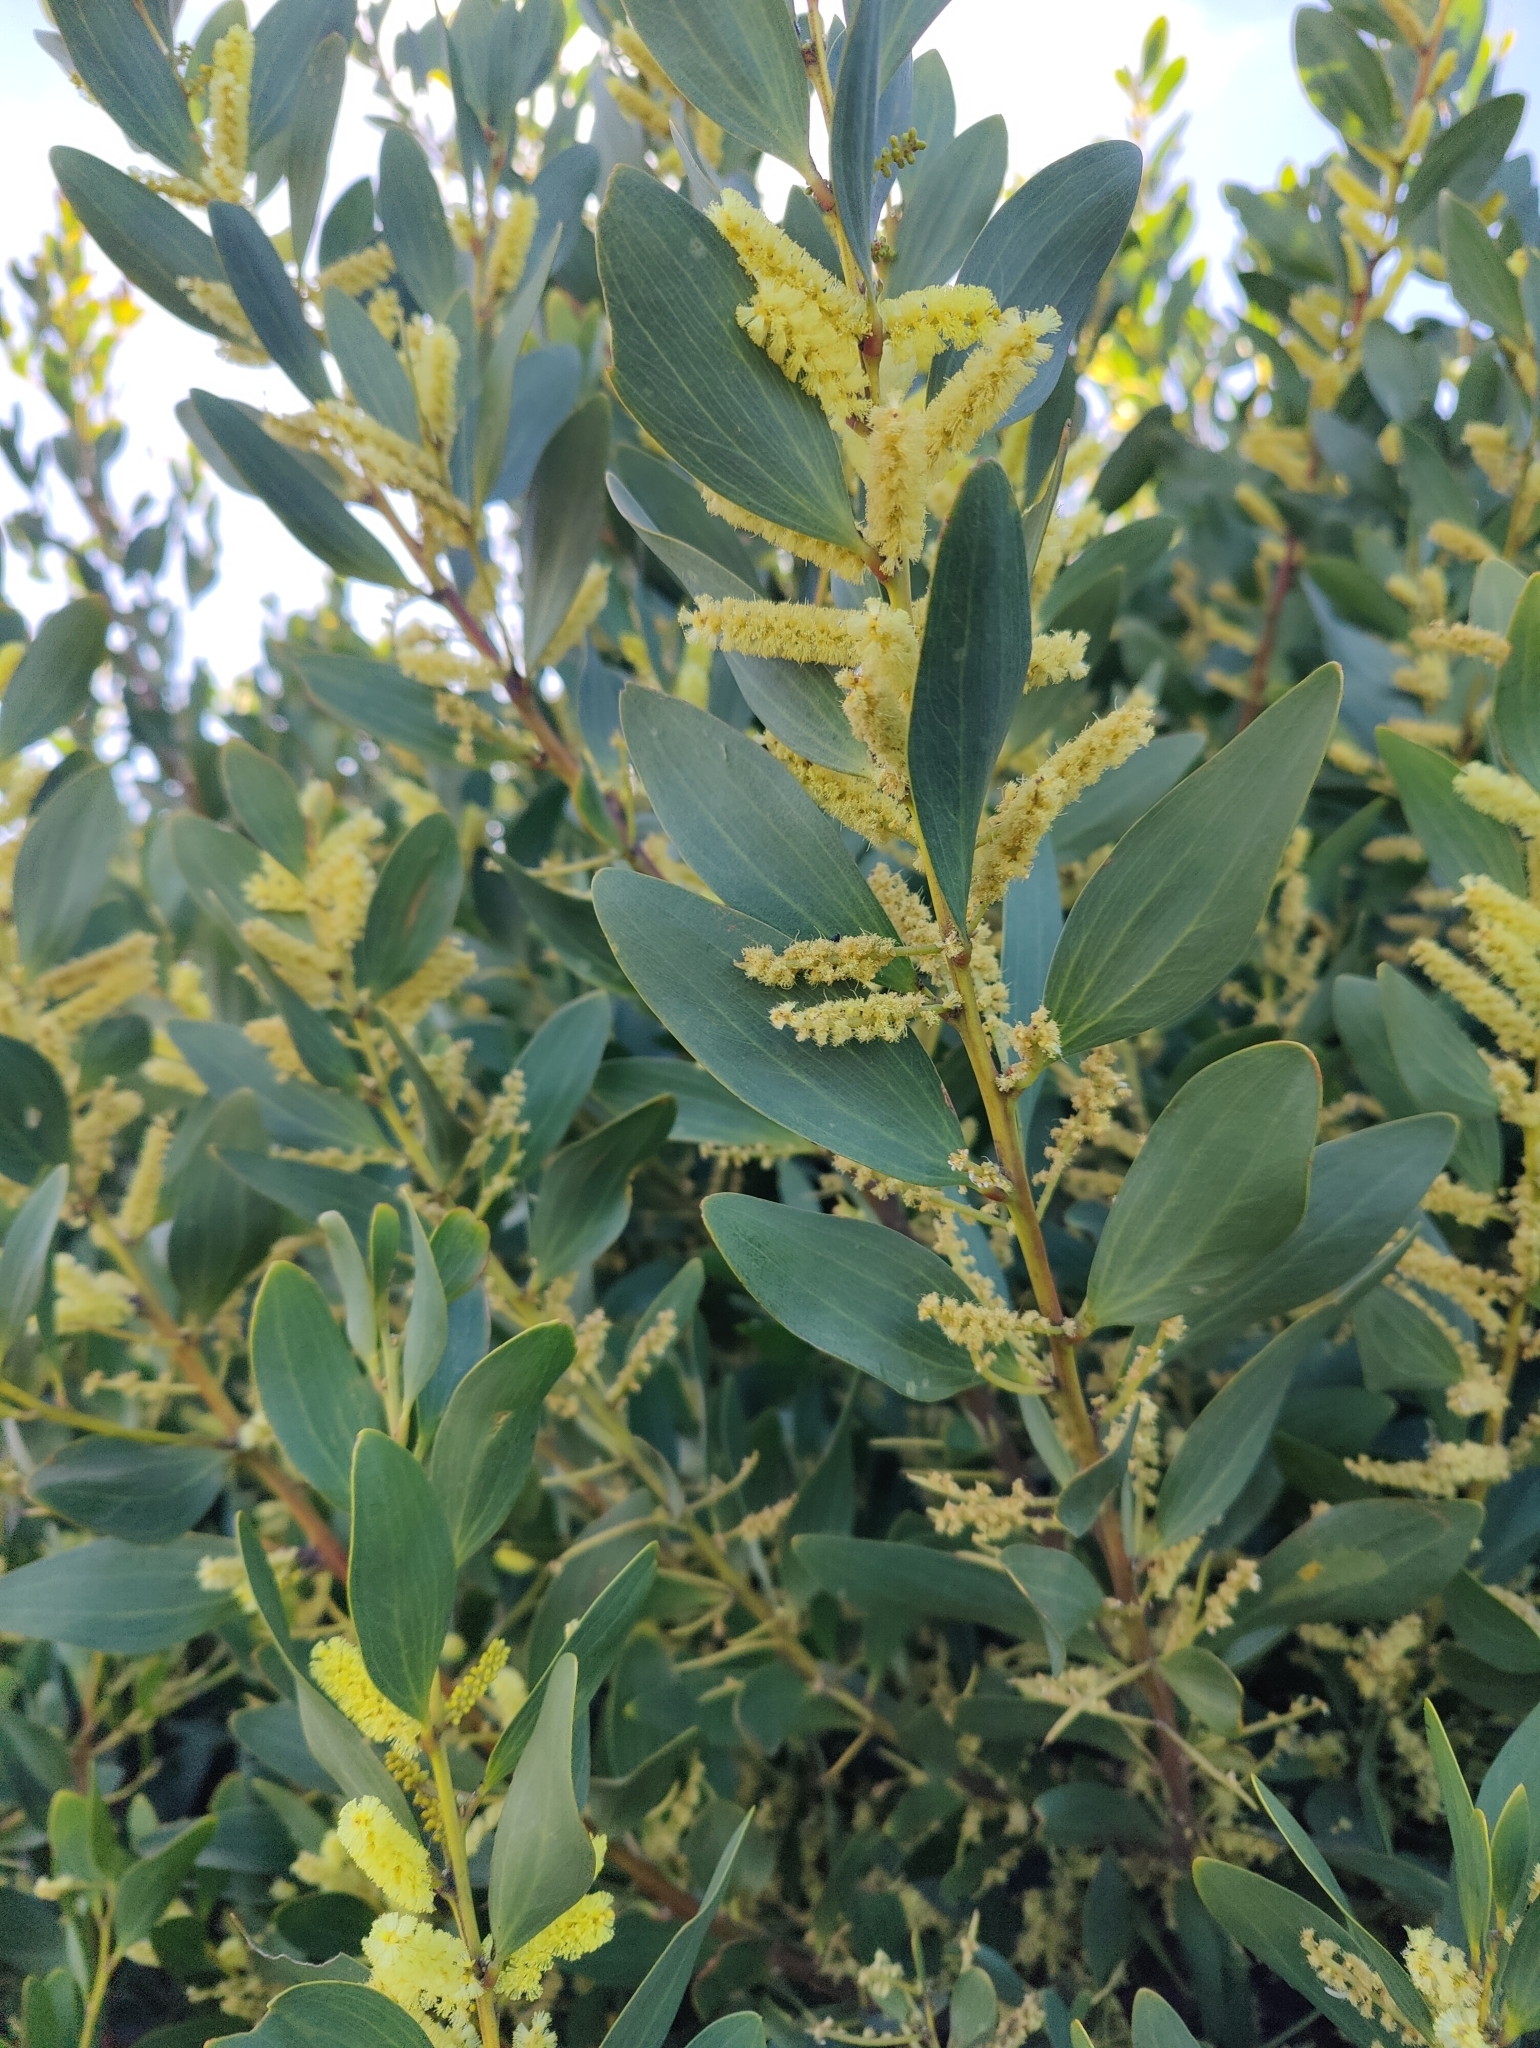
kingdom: Plantae
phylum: Tracheophyta
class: Magnoliopsida
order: Fabales
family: Fabaceae
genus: Acacia
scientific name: Acacia longifolia
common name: Sydney golden wattle
